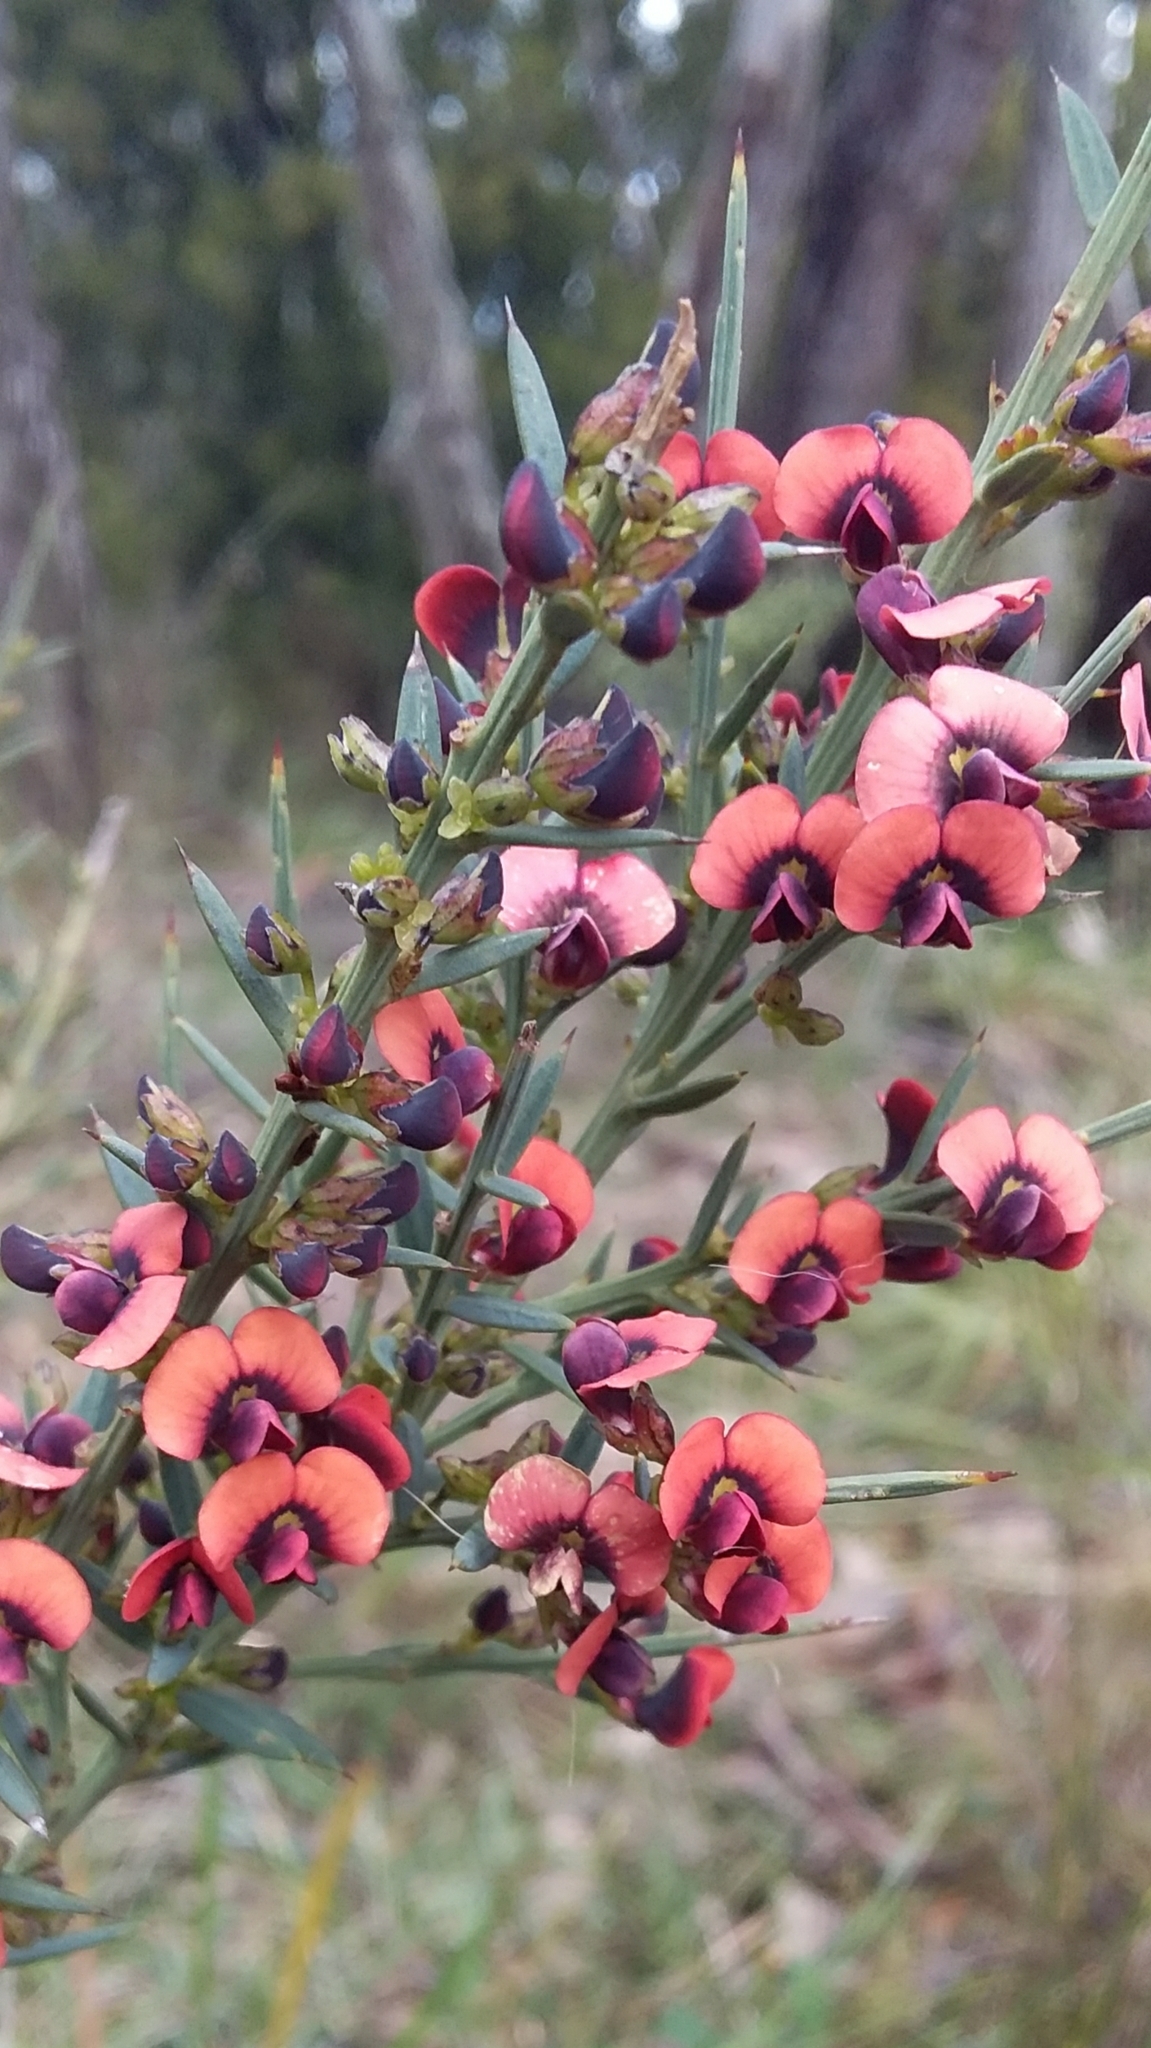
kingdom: Plantae
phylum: Tracheophyta
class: Magnoliopsida
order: Fabales
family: Fabaceae
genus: Daviesia
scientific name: Daviesia ulicifolia
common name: Gorse bitter-pea
